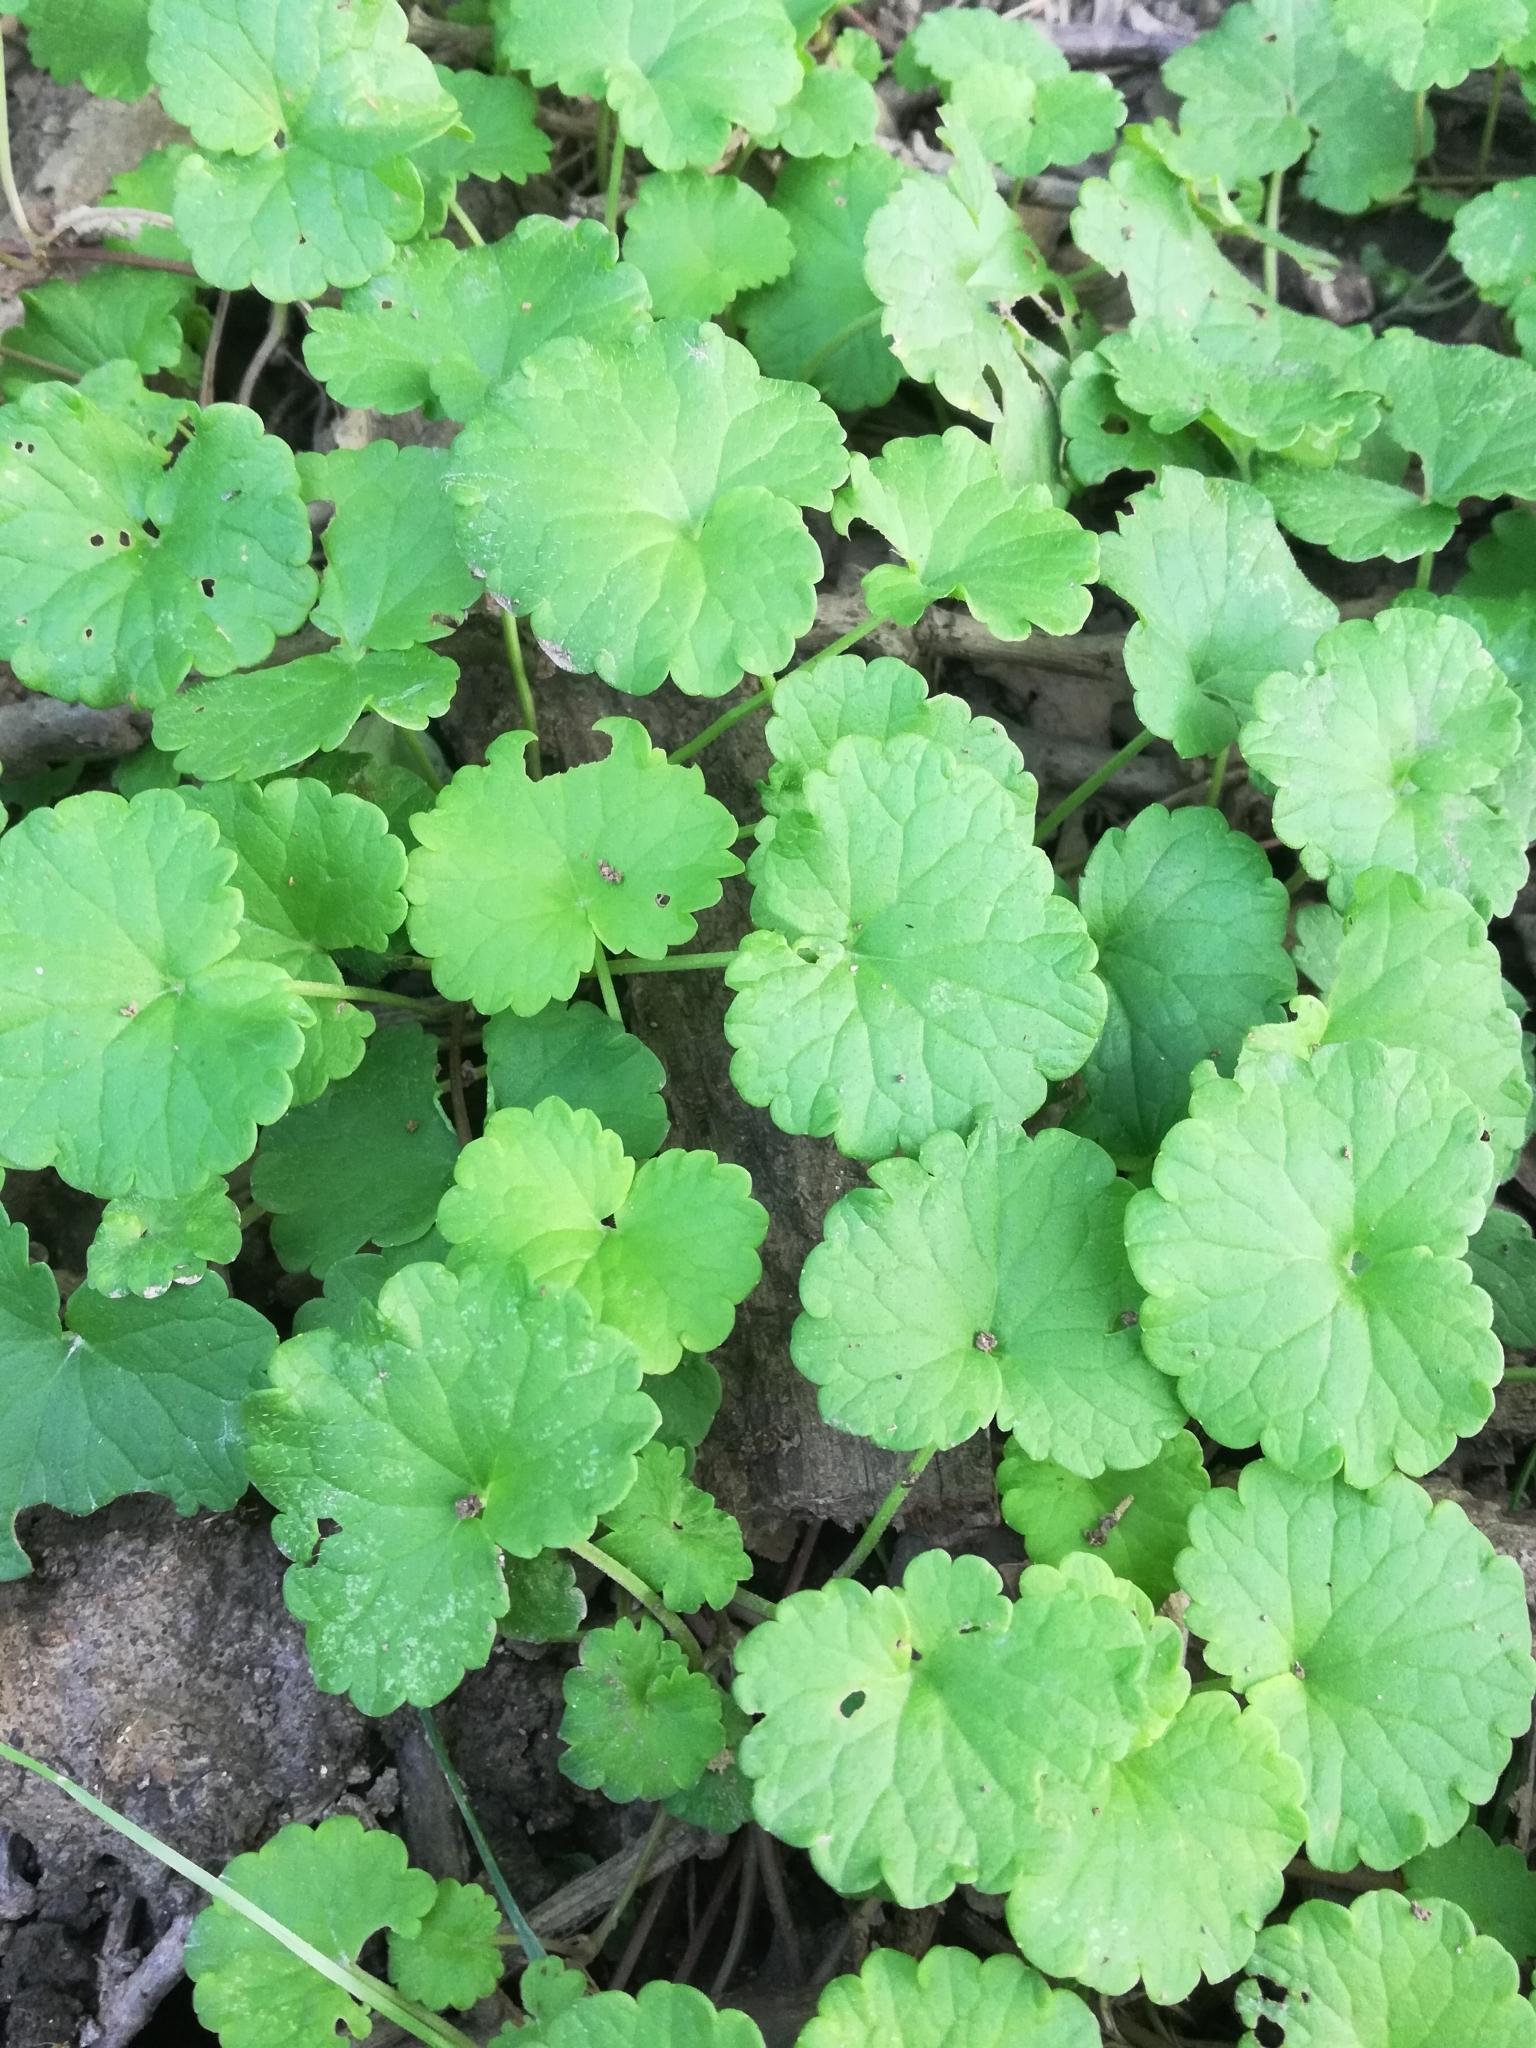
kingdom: Plantae
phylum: Tracheophyta
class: Magnoliopsida
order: Lamiales
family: Lamiaceae
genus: Glechoma
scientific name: Glechoma hederacea
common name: Ground ivy
